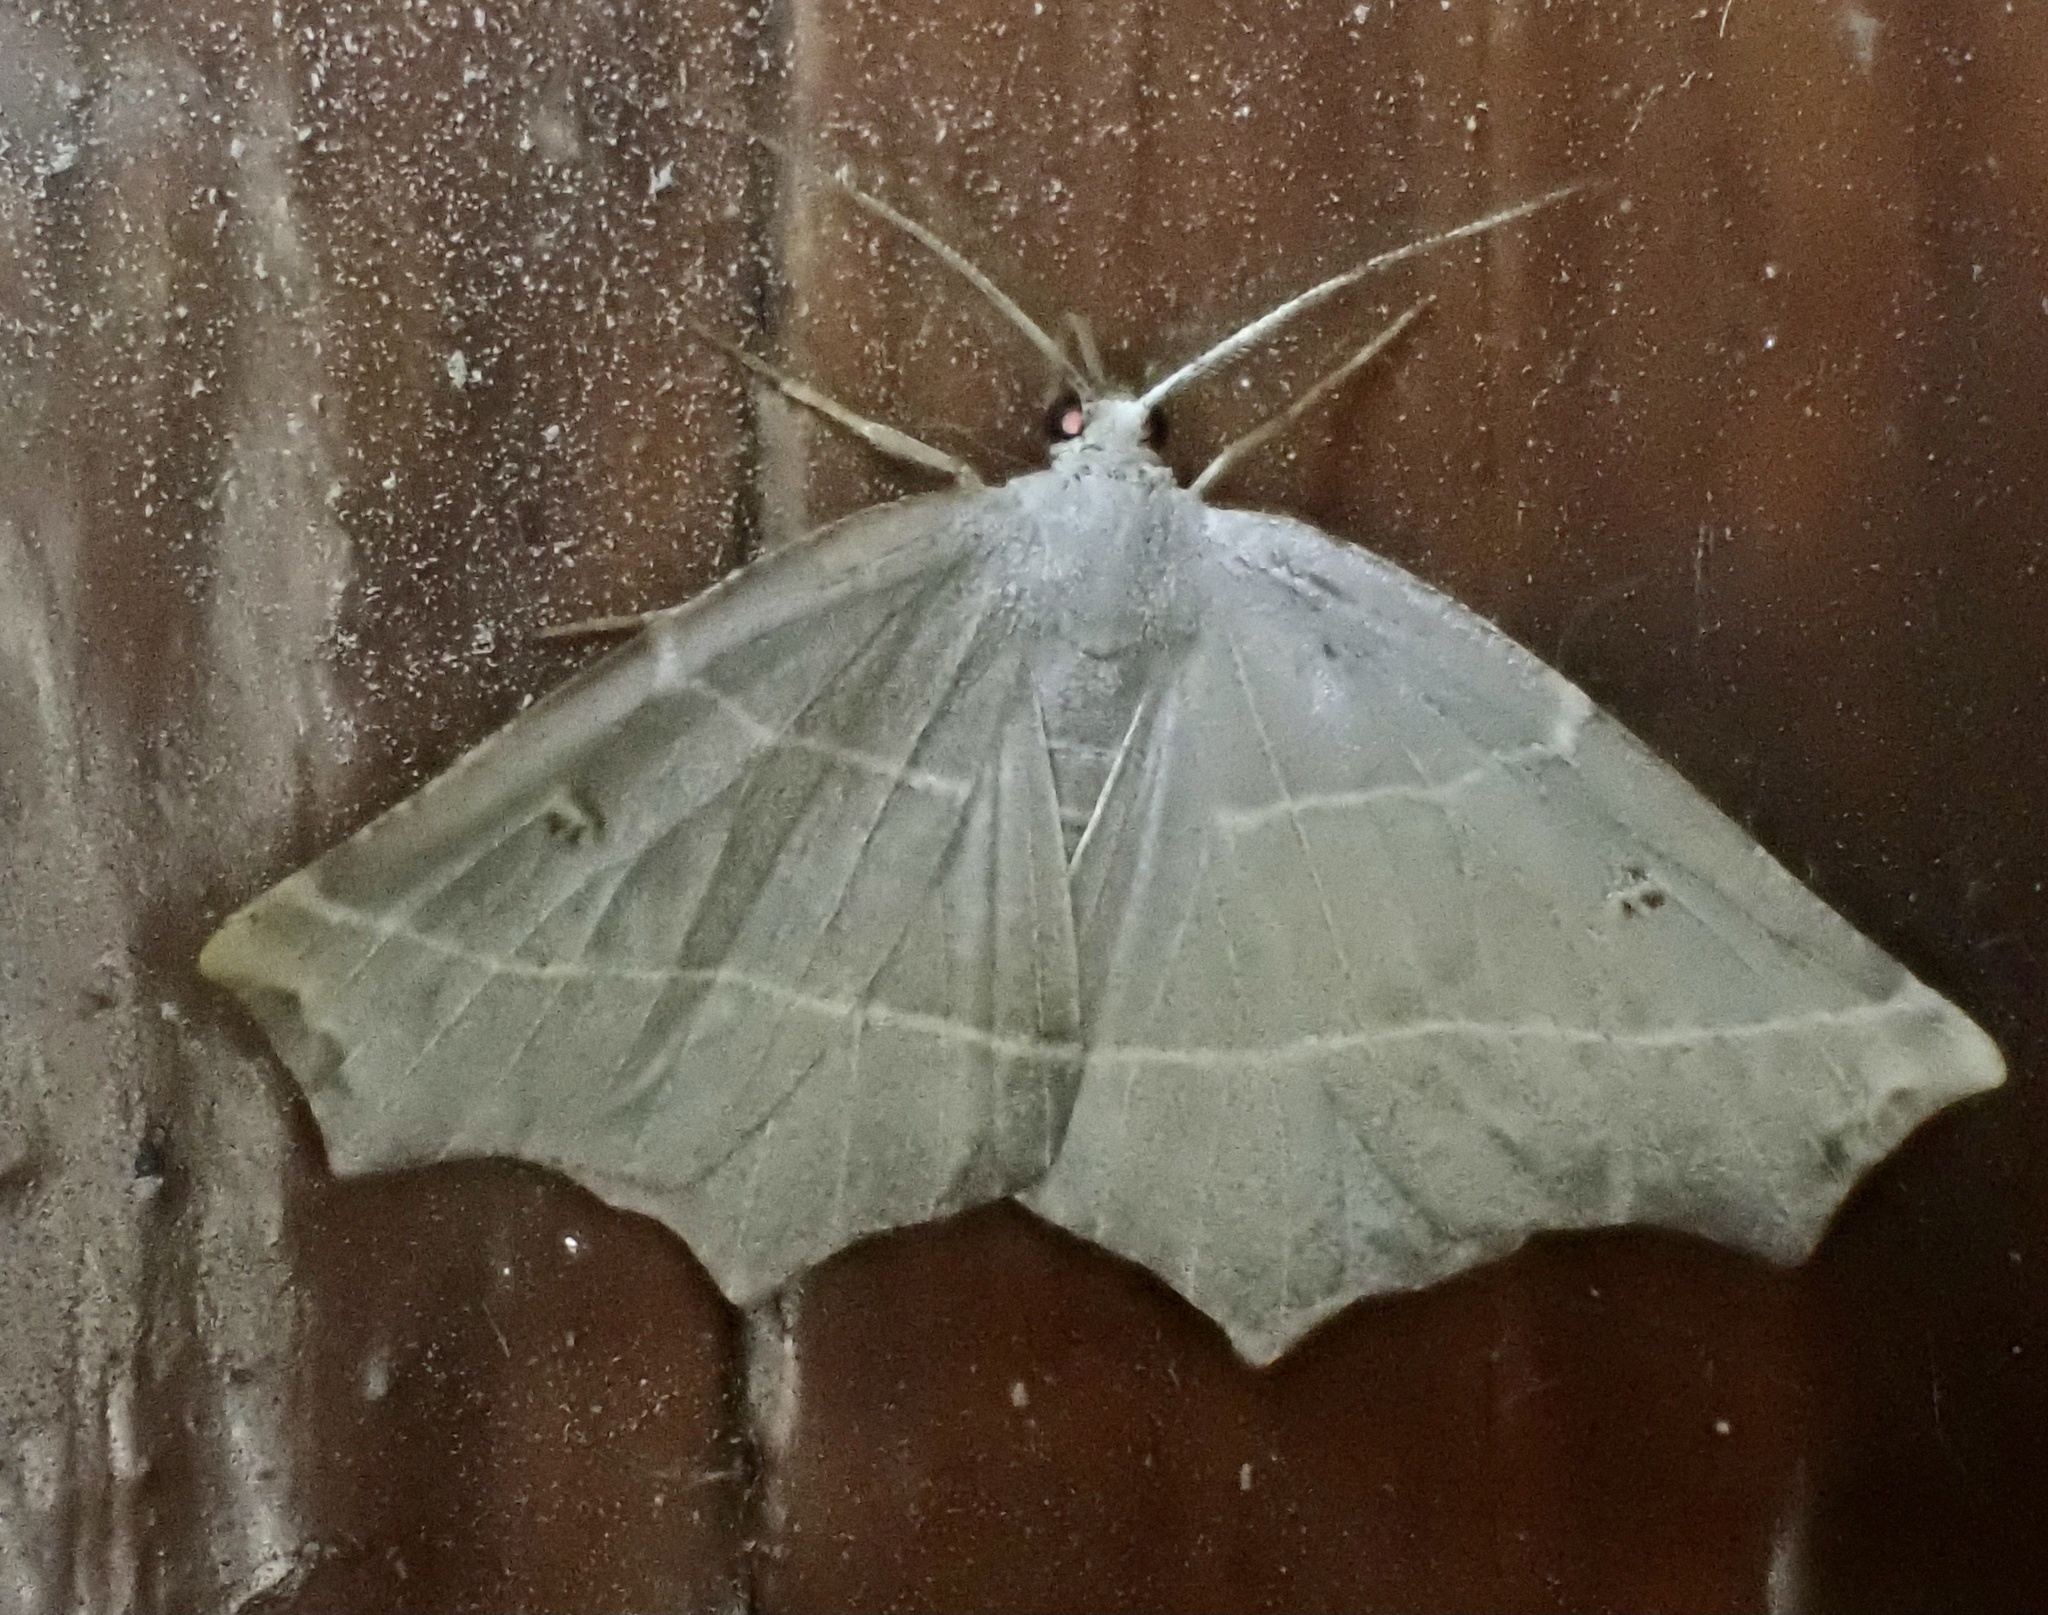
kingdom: Animalia
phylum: Arthropoda
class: Insecta
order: Lepidoptera
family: Geometridae
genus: Metanema
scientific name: Metanema inatomaria
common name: Pale metanema
